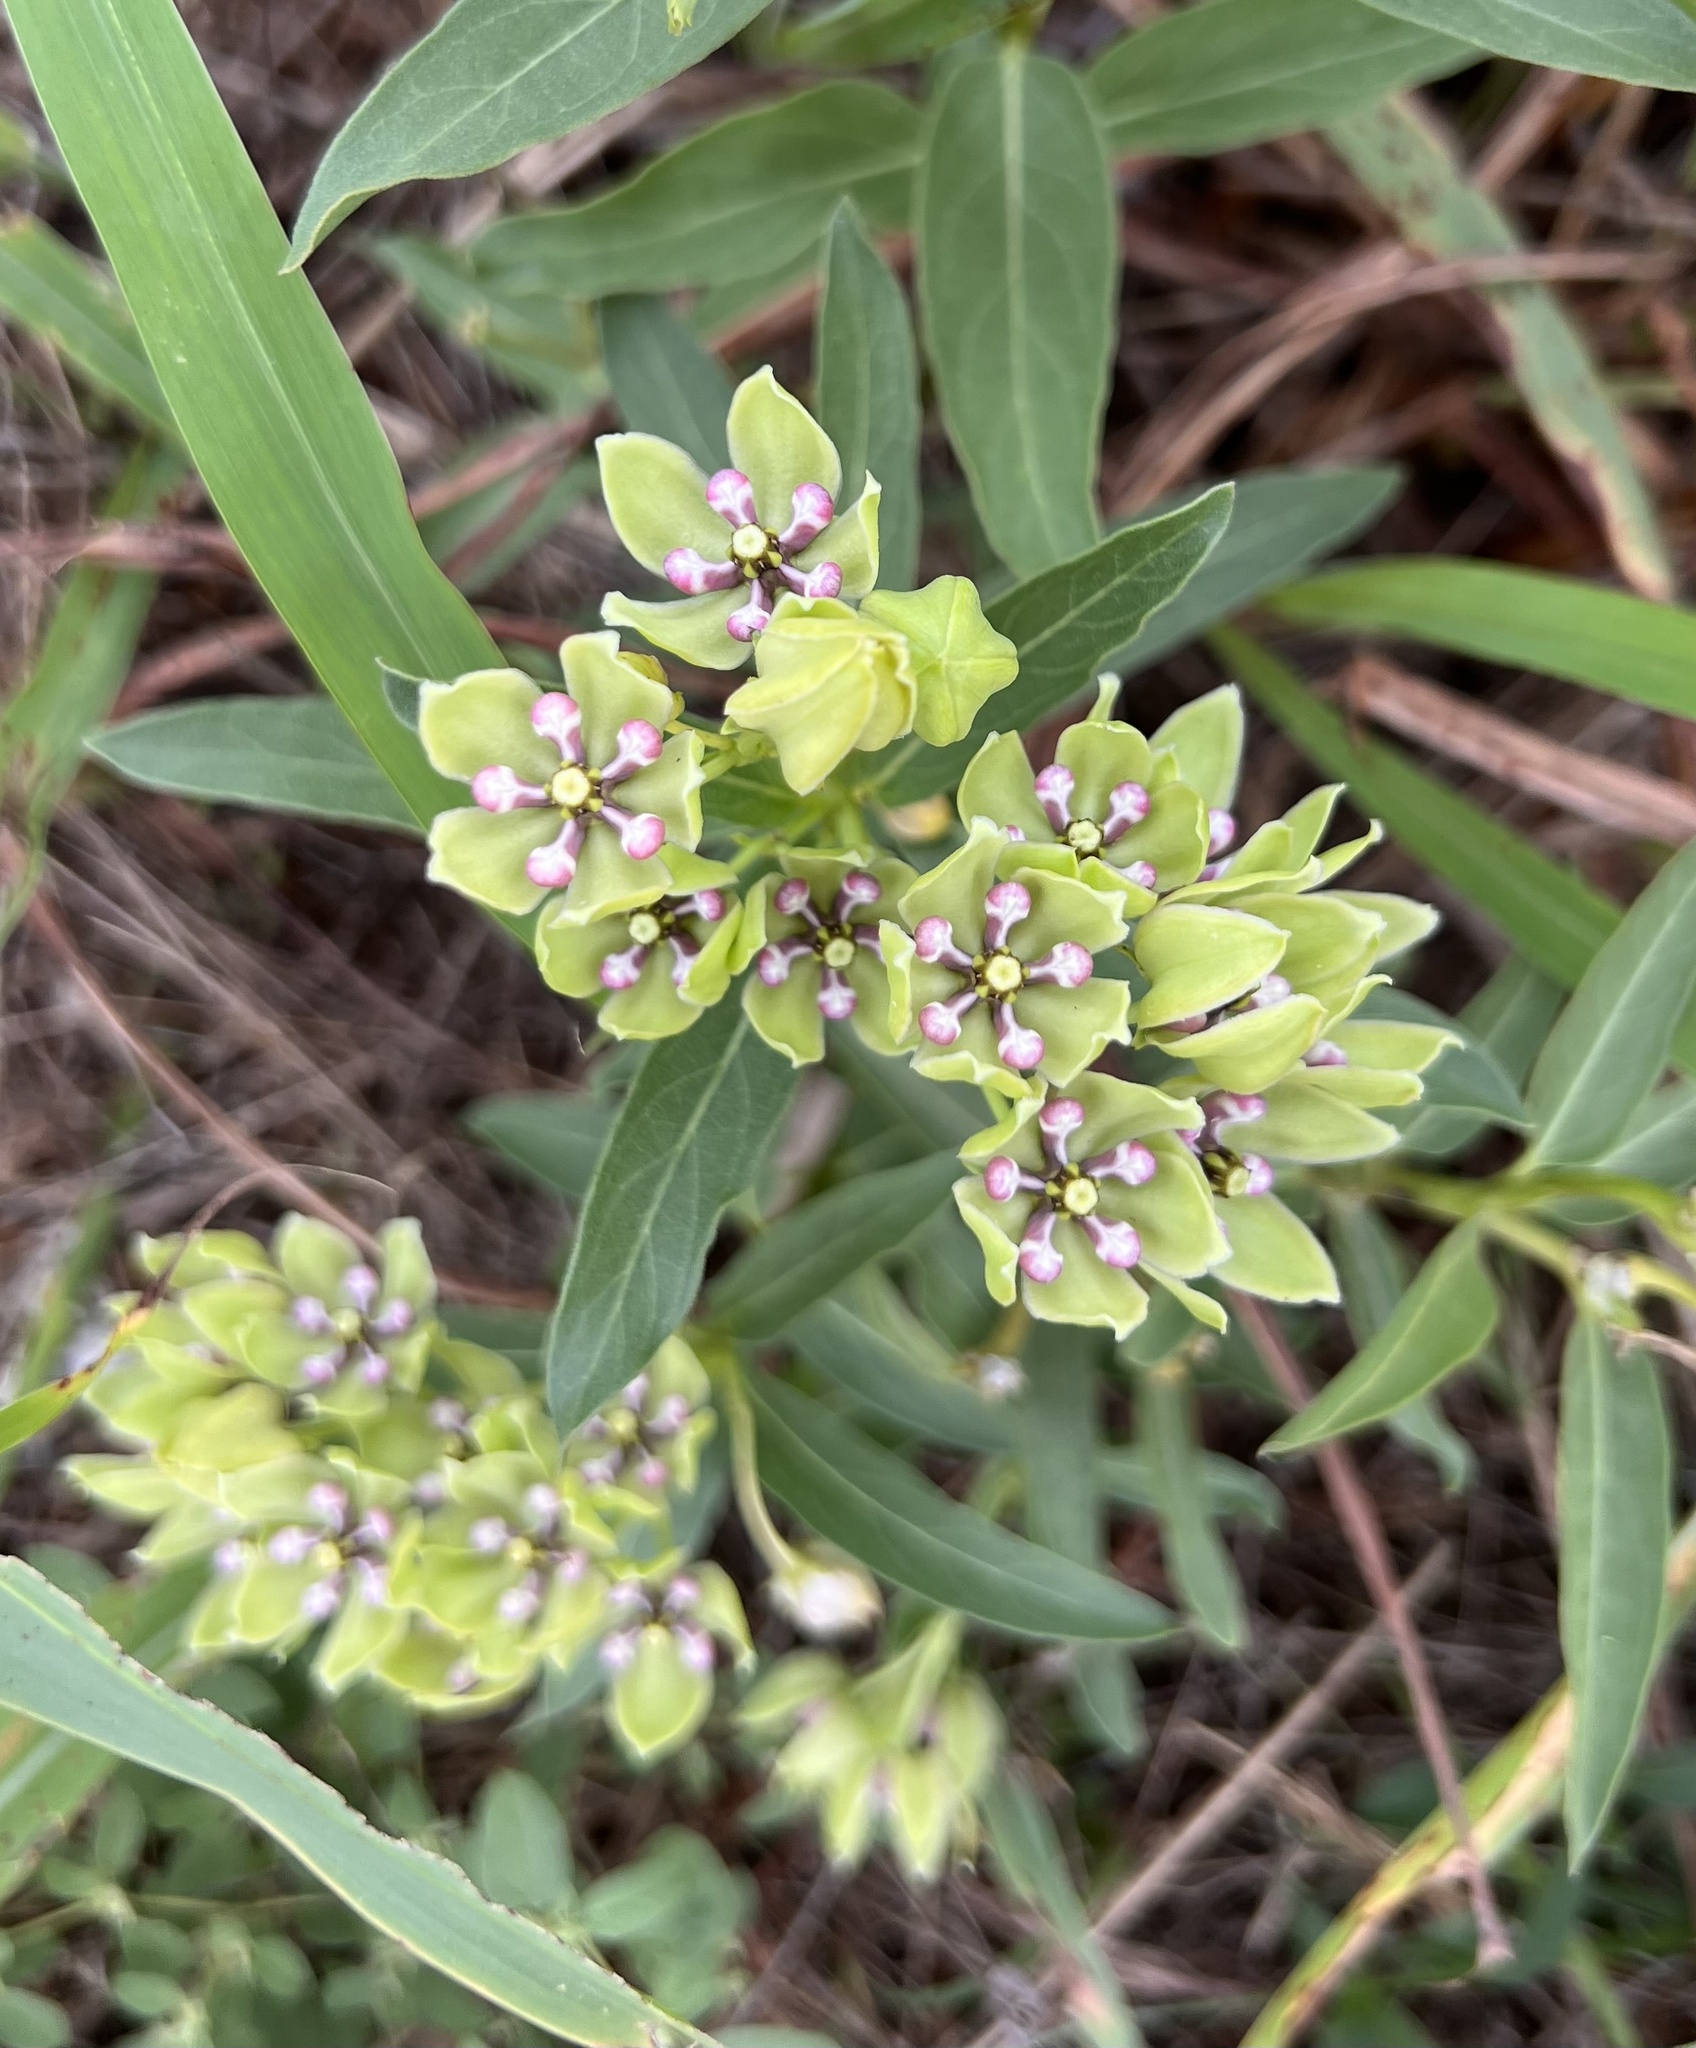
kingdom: Plantae
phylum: Tracheophyta
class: Magnoliopsida
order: Gentianales
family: Apocynaceae
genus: Asclepias
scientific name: Asclepias viridis
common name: Antelope-horns
